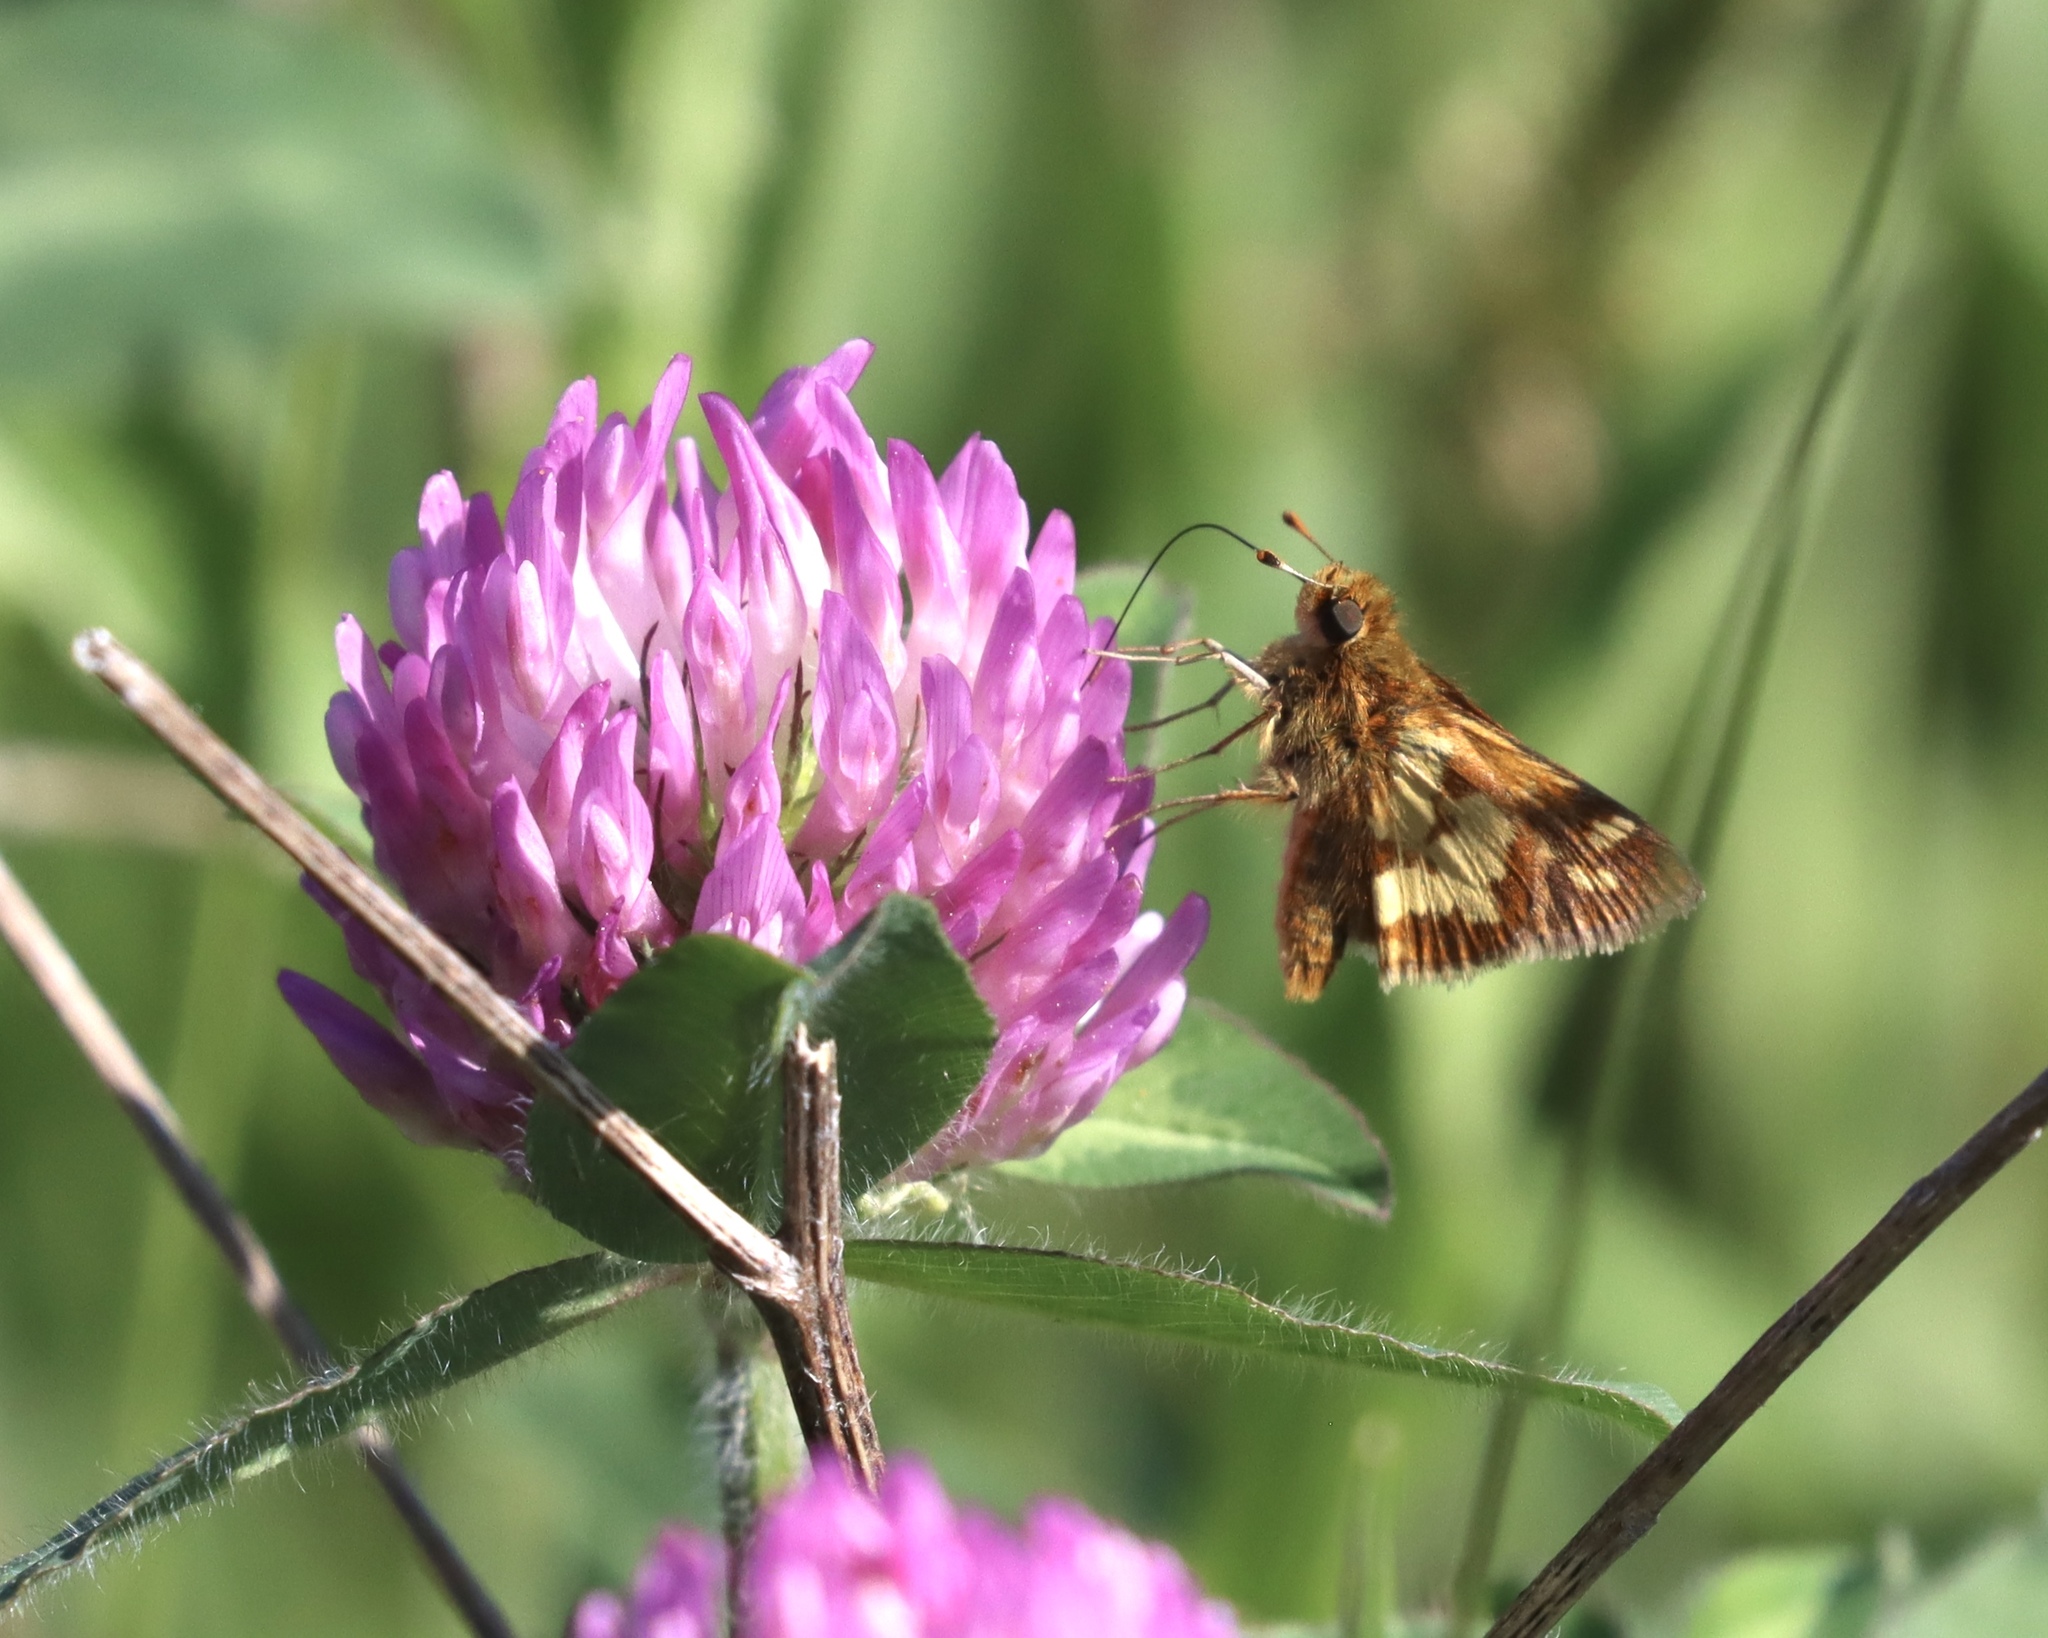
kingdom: Animalia
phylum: Arthropoda
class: Insecta
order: Lepidoptera
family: Hesperiidae
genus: Polites
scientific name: Polites coras
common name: Peck's skipper
